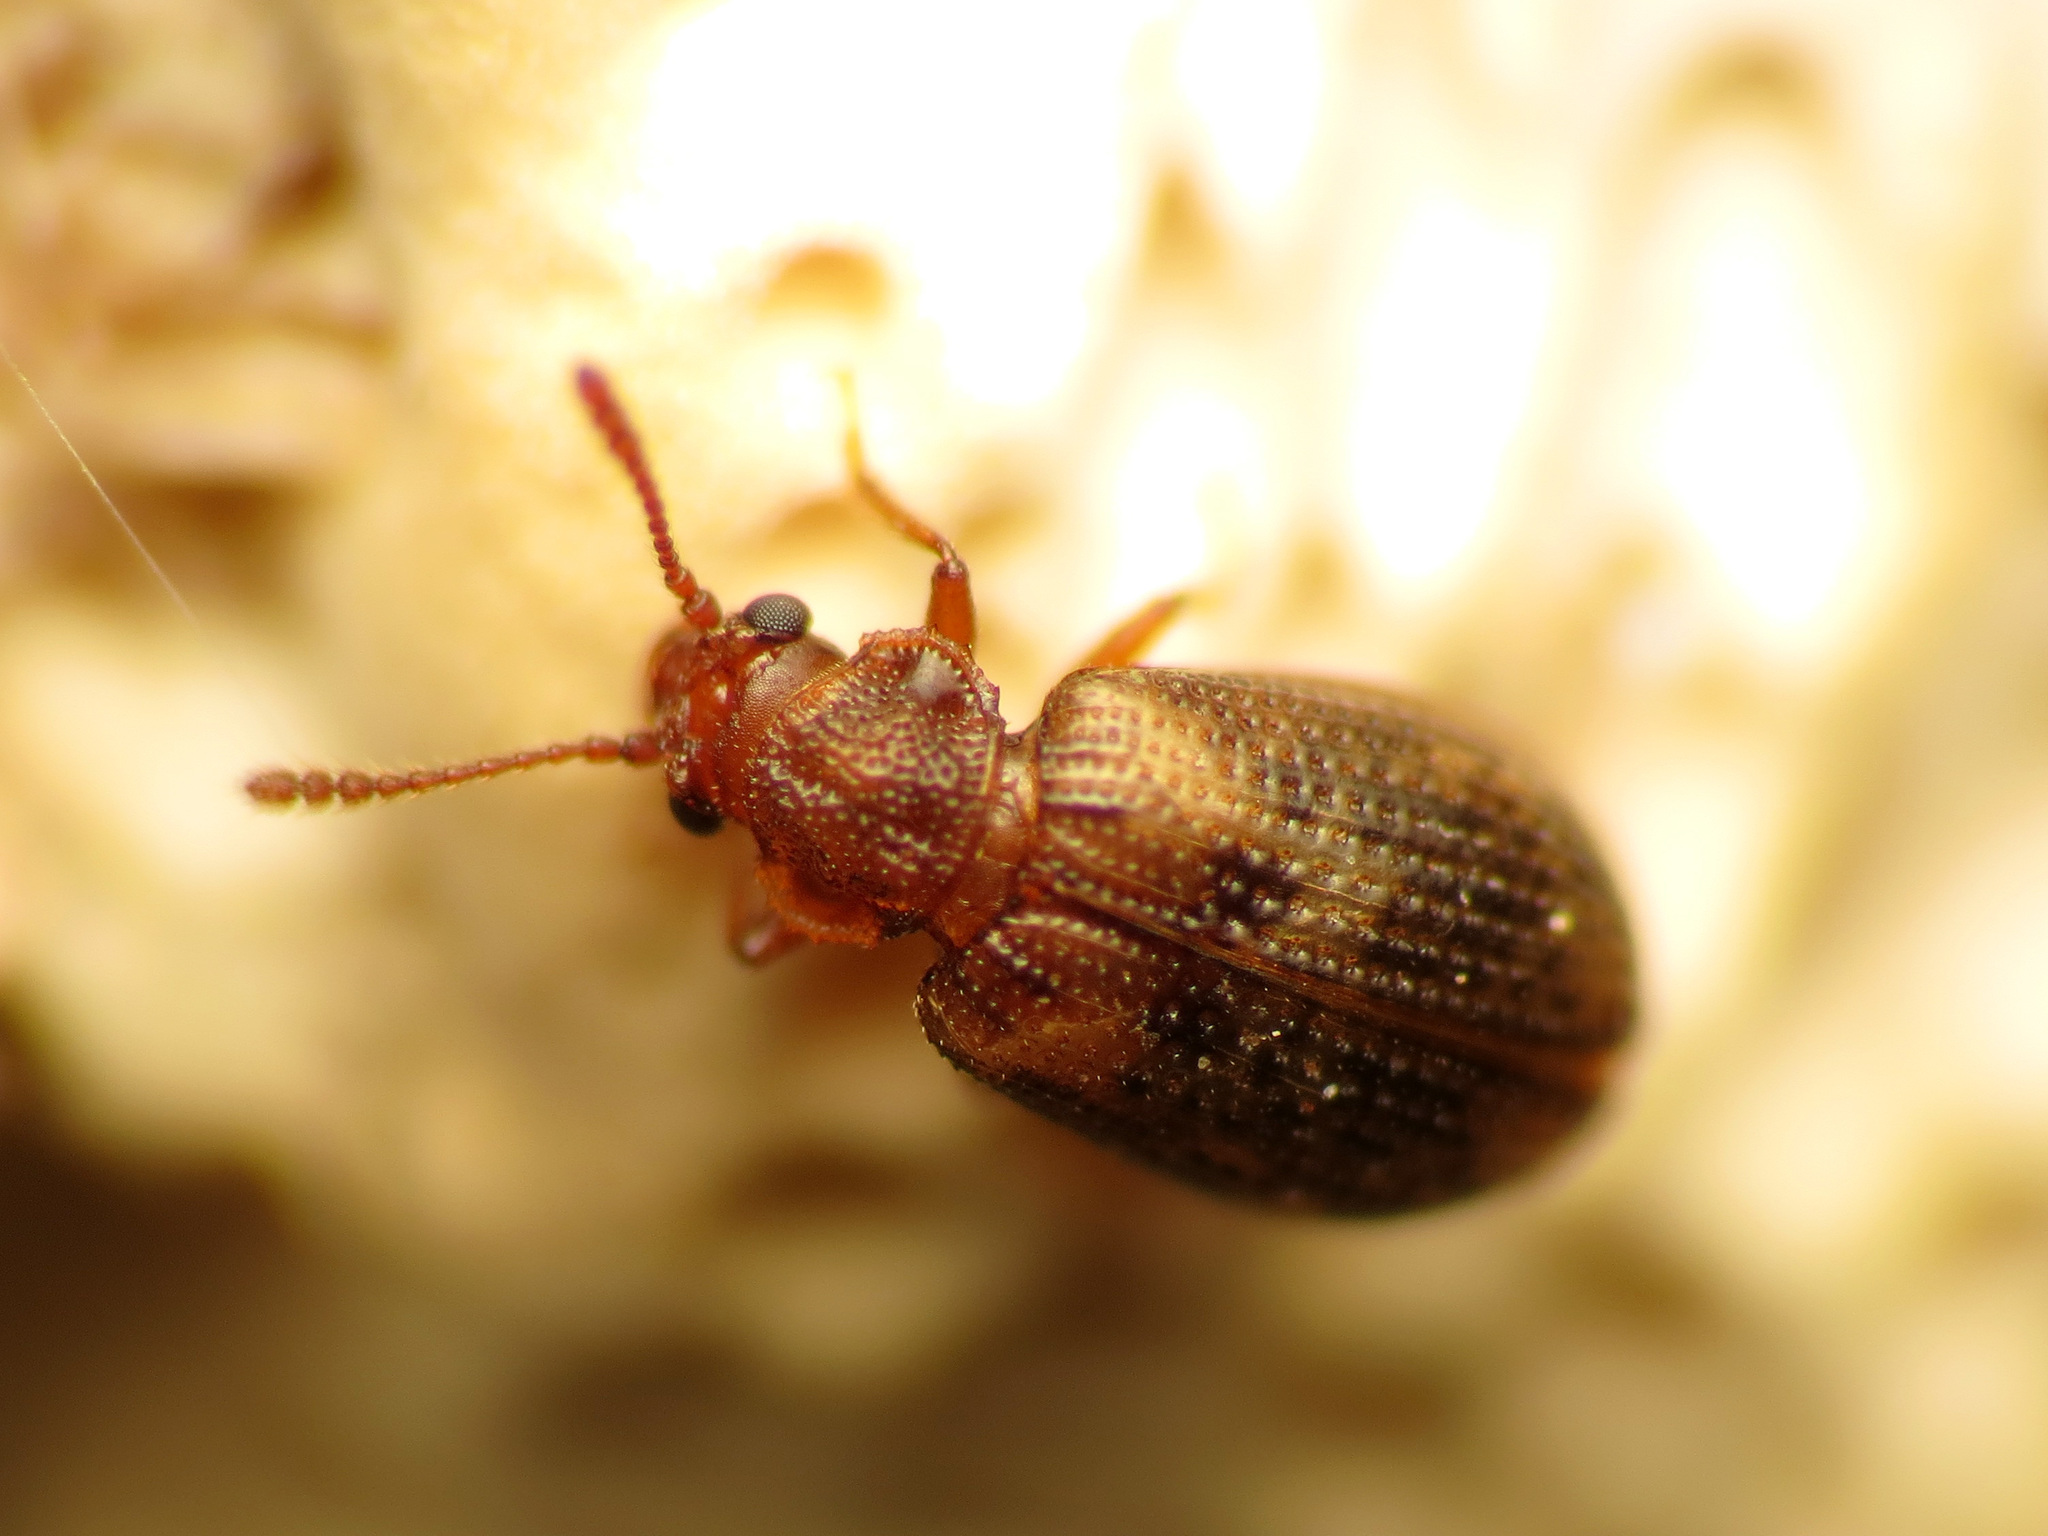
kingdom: Animalia
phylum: Arthropoda
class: Insecta
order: Coleoptera
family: Derodontidae
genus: Derodontus
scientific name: Derodontus esotericus
